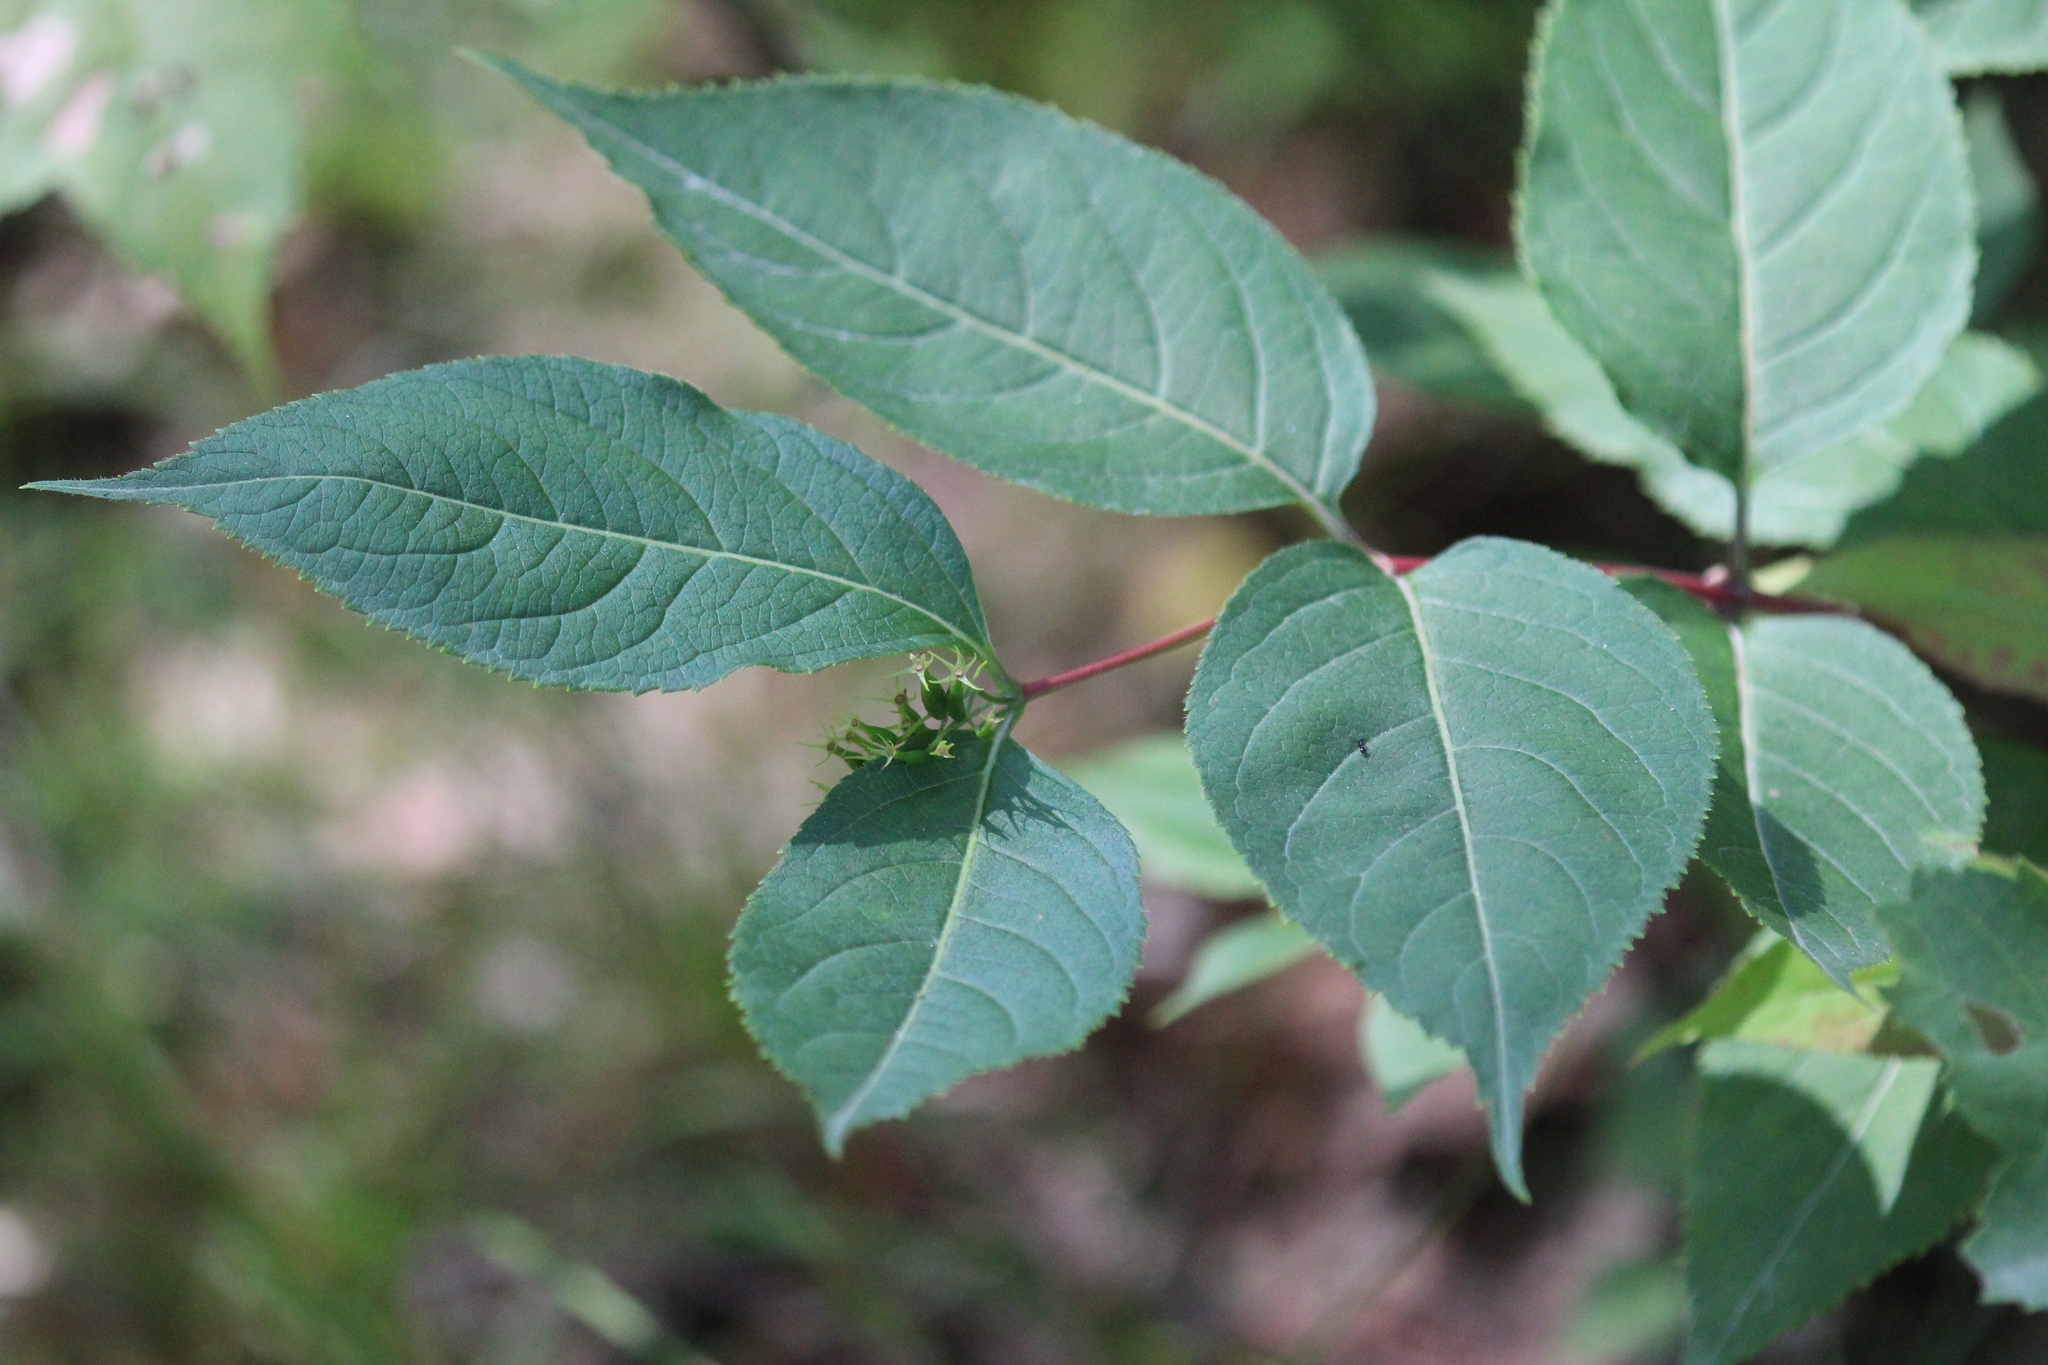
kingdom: Plantae
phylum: Tracheophyta
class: Magnoliopsida
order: Dipsacales
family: Caprifoliaceae
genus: Diervilla
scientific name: Diervilla lonicera
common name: Bush-honeysuckle
